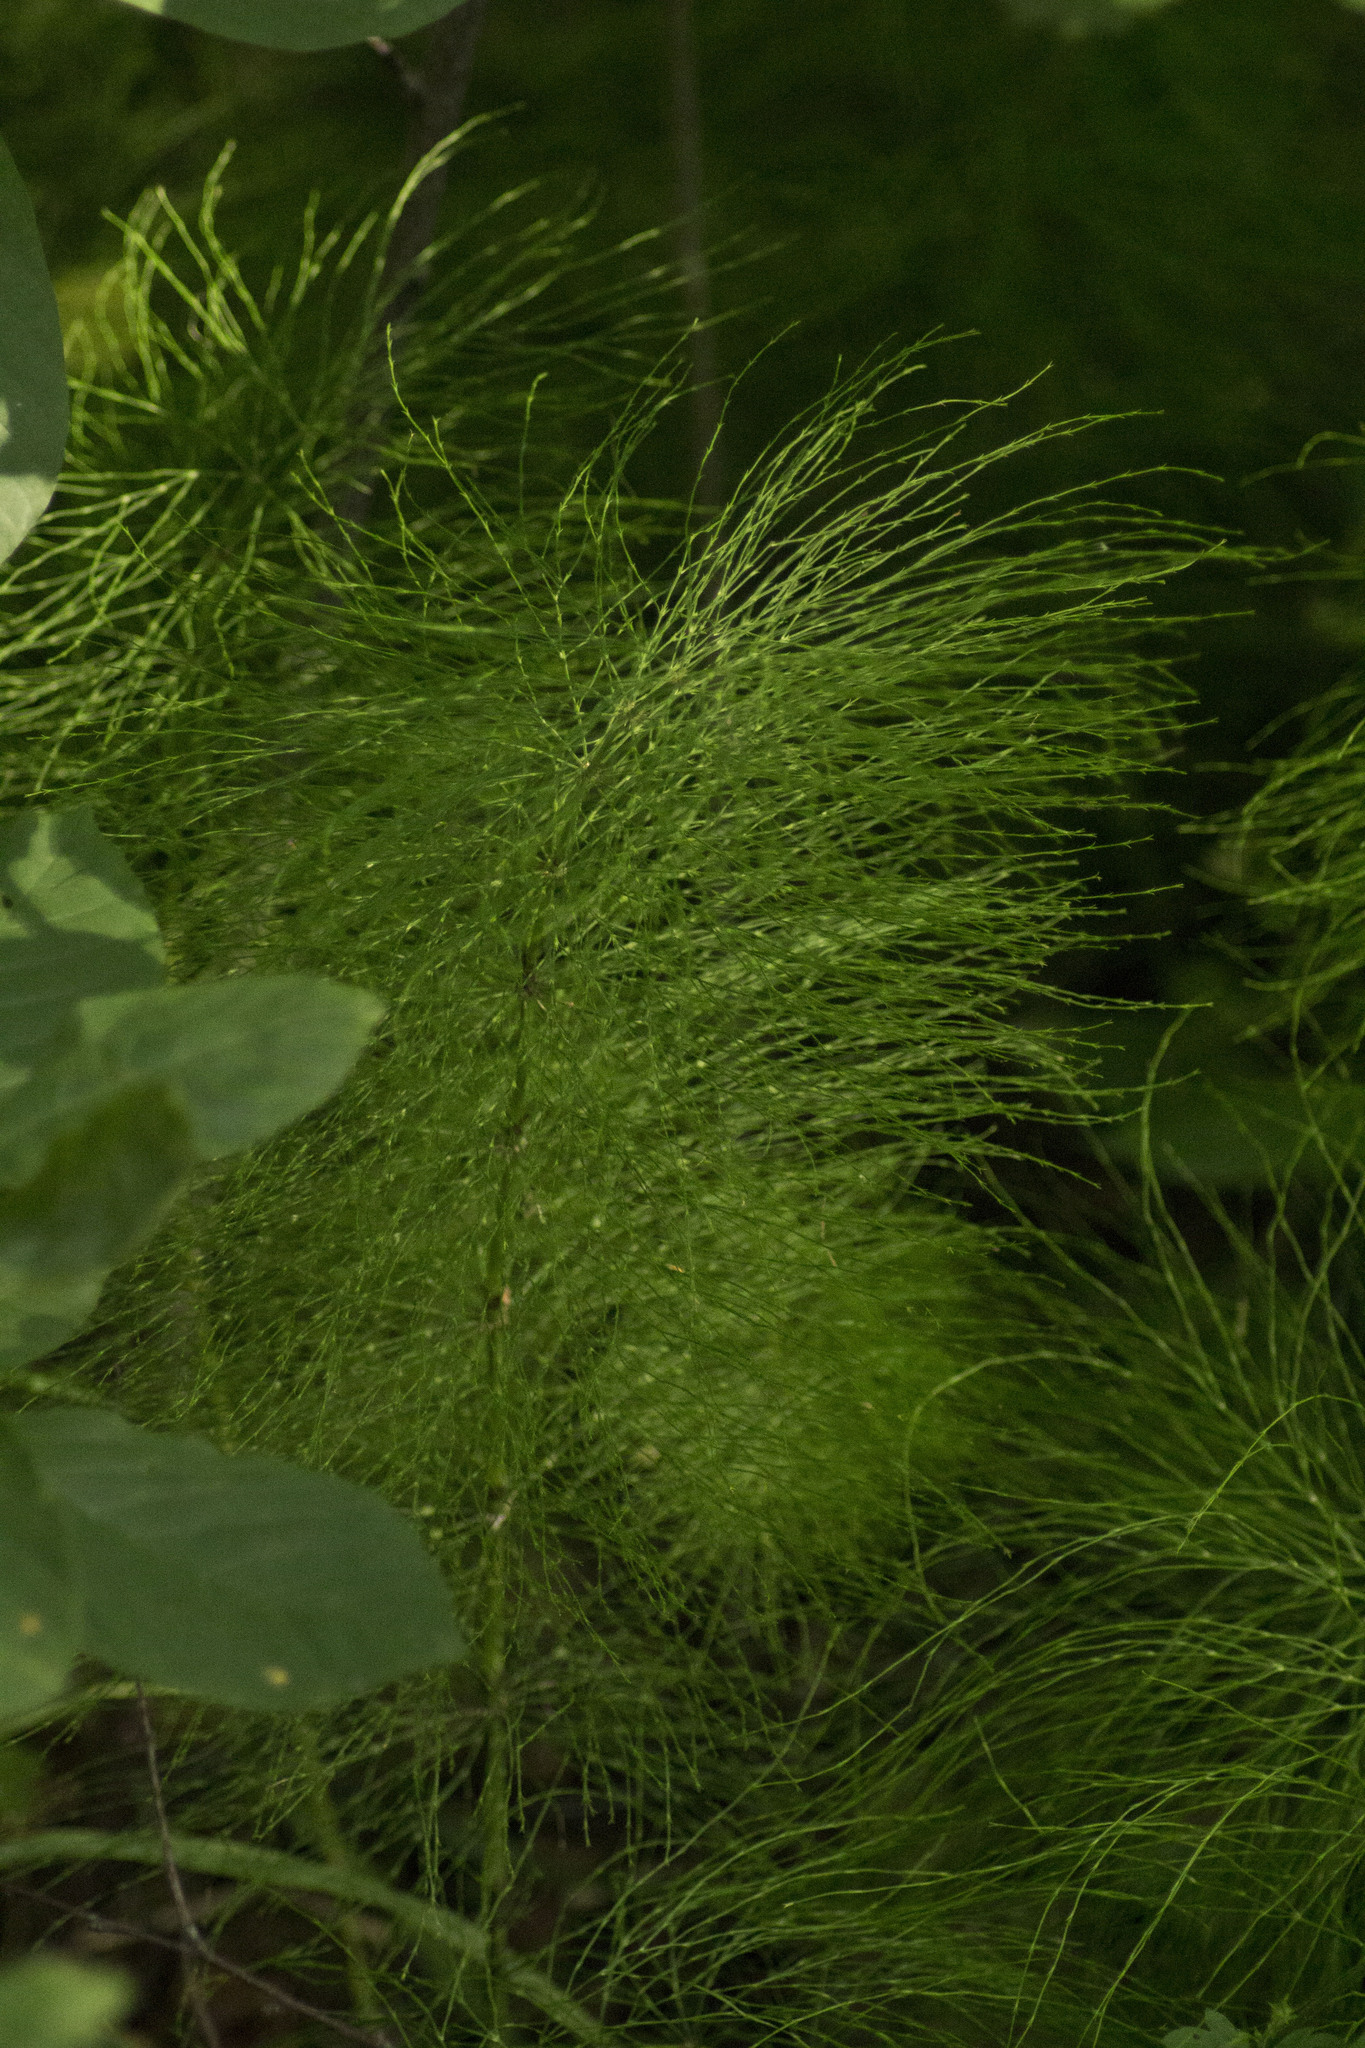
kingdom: Plantae
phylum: Tracheophyta
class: Polypodiopsida
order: Equisetales
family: Equisetaceae
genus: Equisetum
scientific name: Equisetum sylvaticum
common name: Wood horsetail
